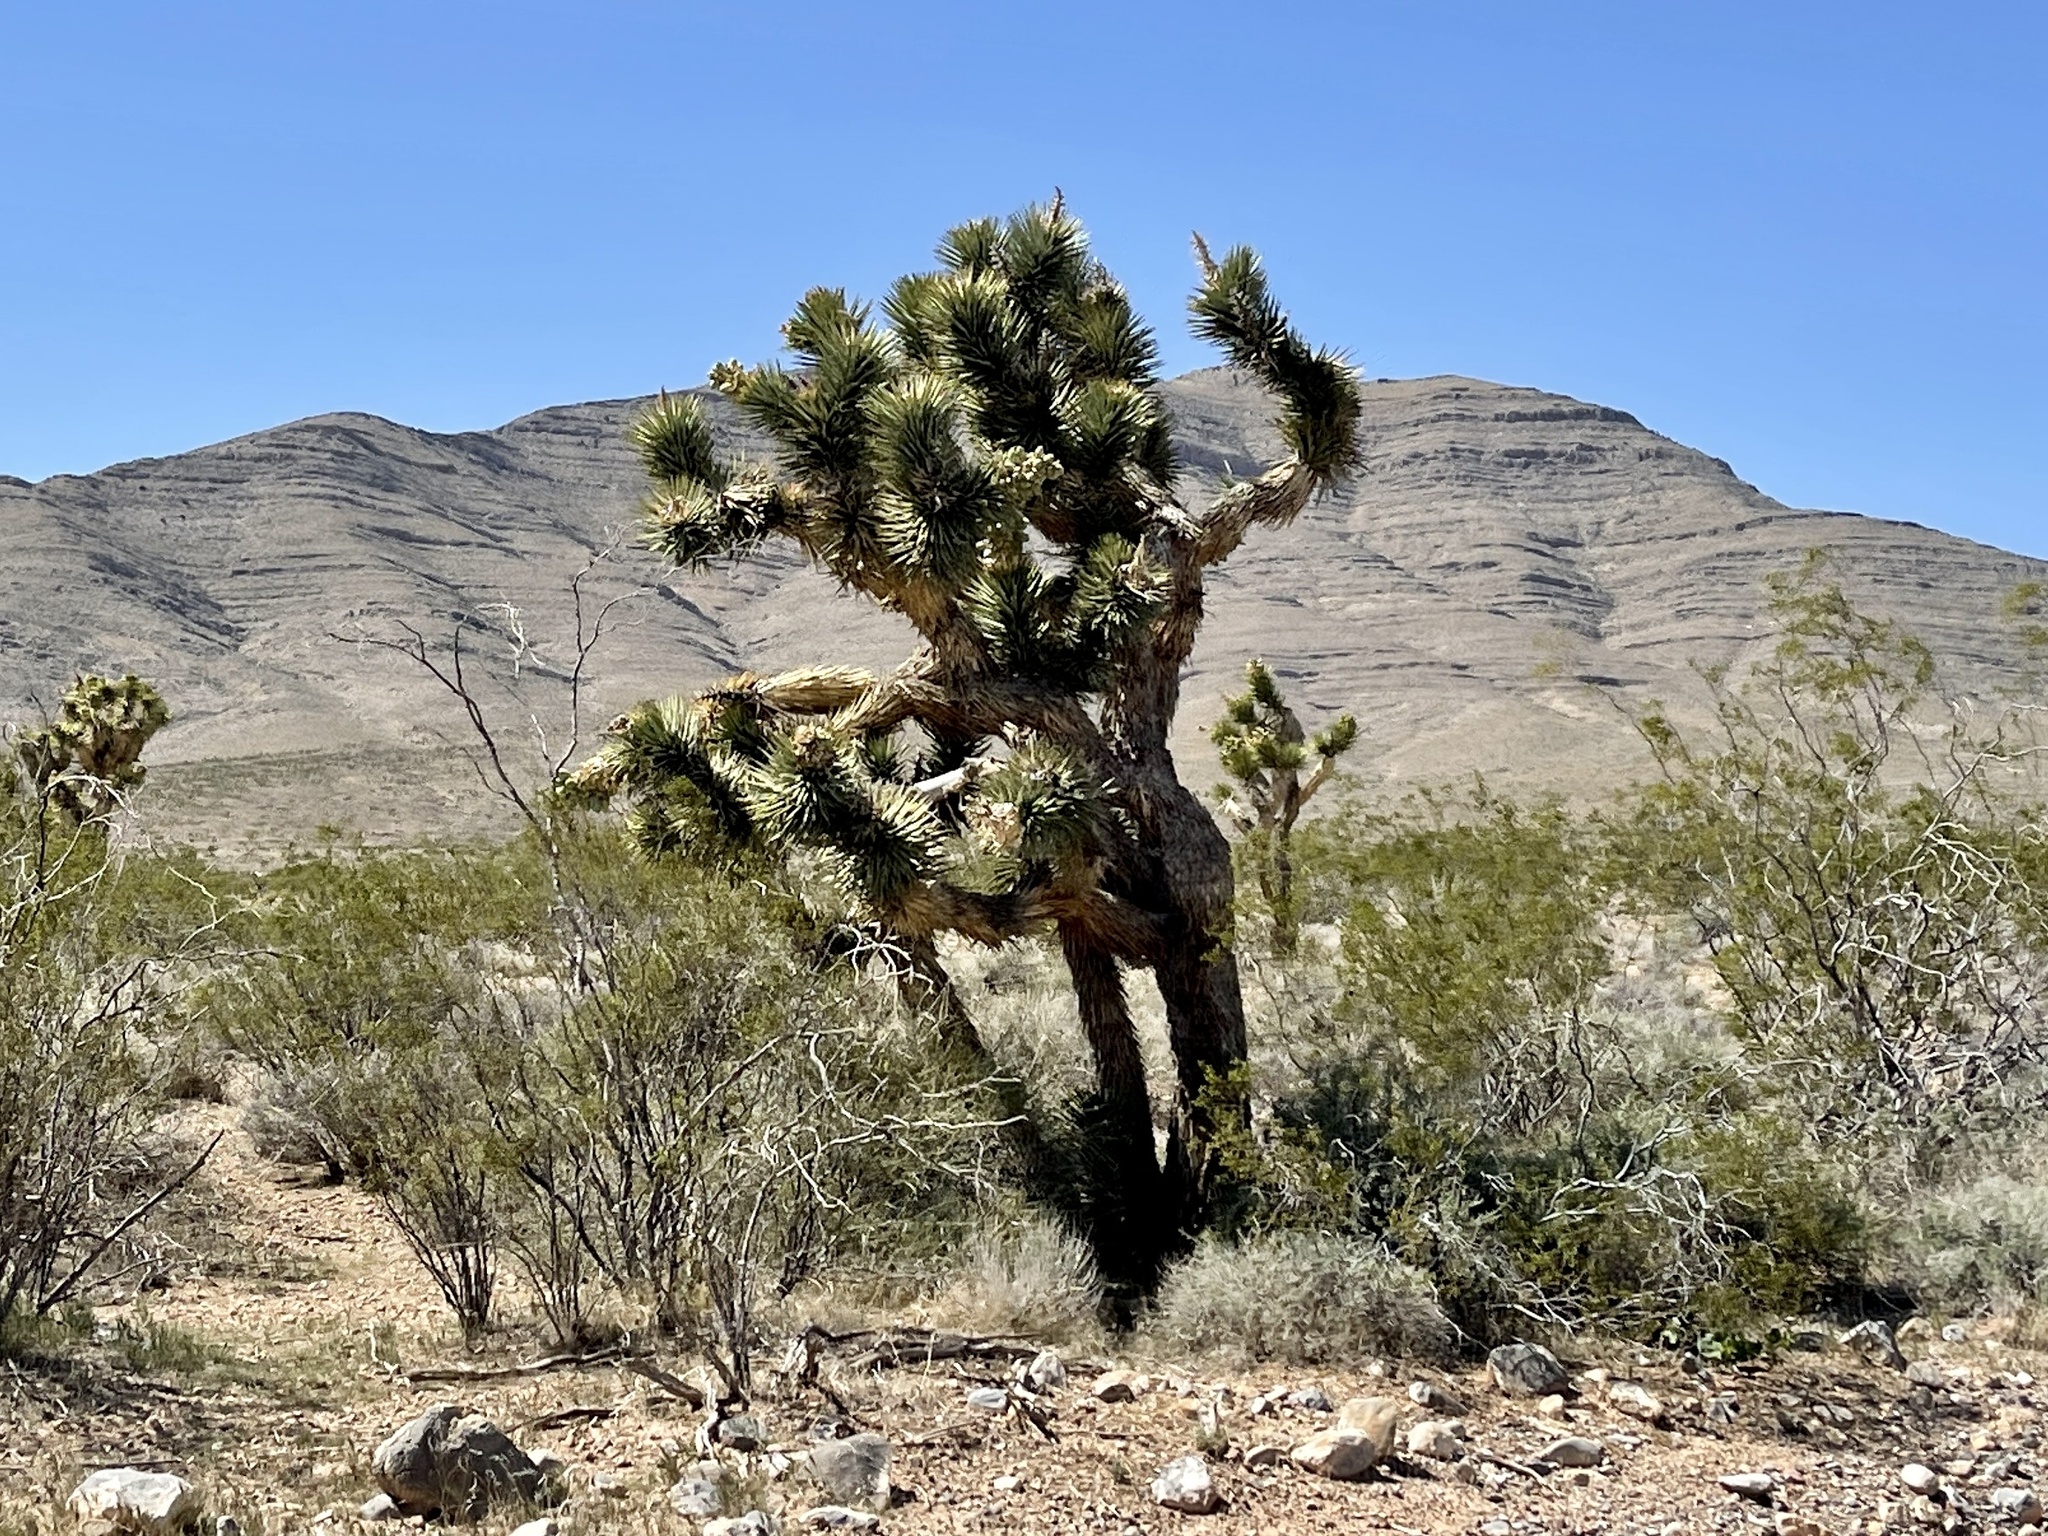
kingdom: Plantae
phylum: Tracheophyta
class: Liliopsida
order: Asparagales
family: Asparagaceae
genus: Yucca
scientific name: Yucca brevifolia
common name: Joshua tree
